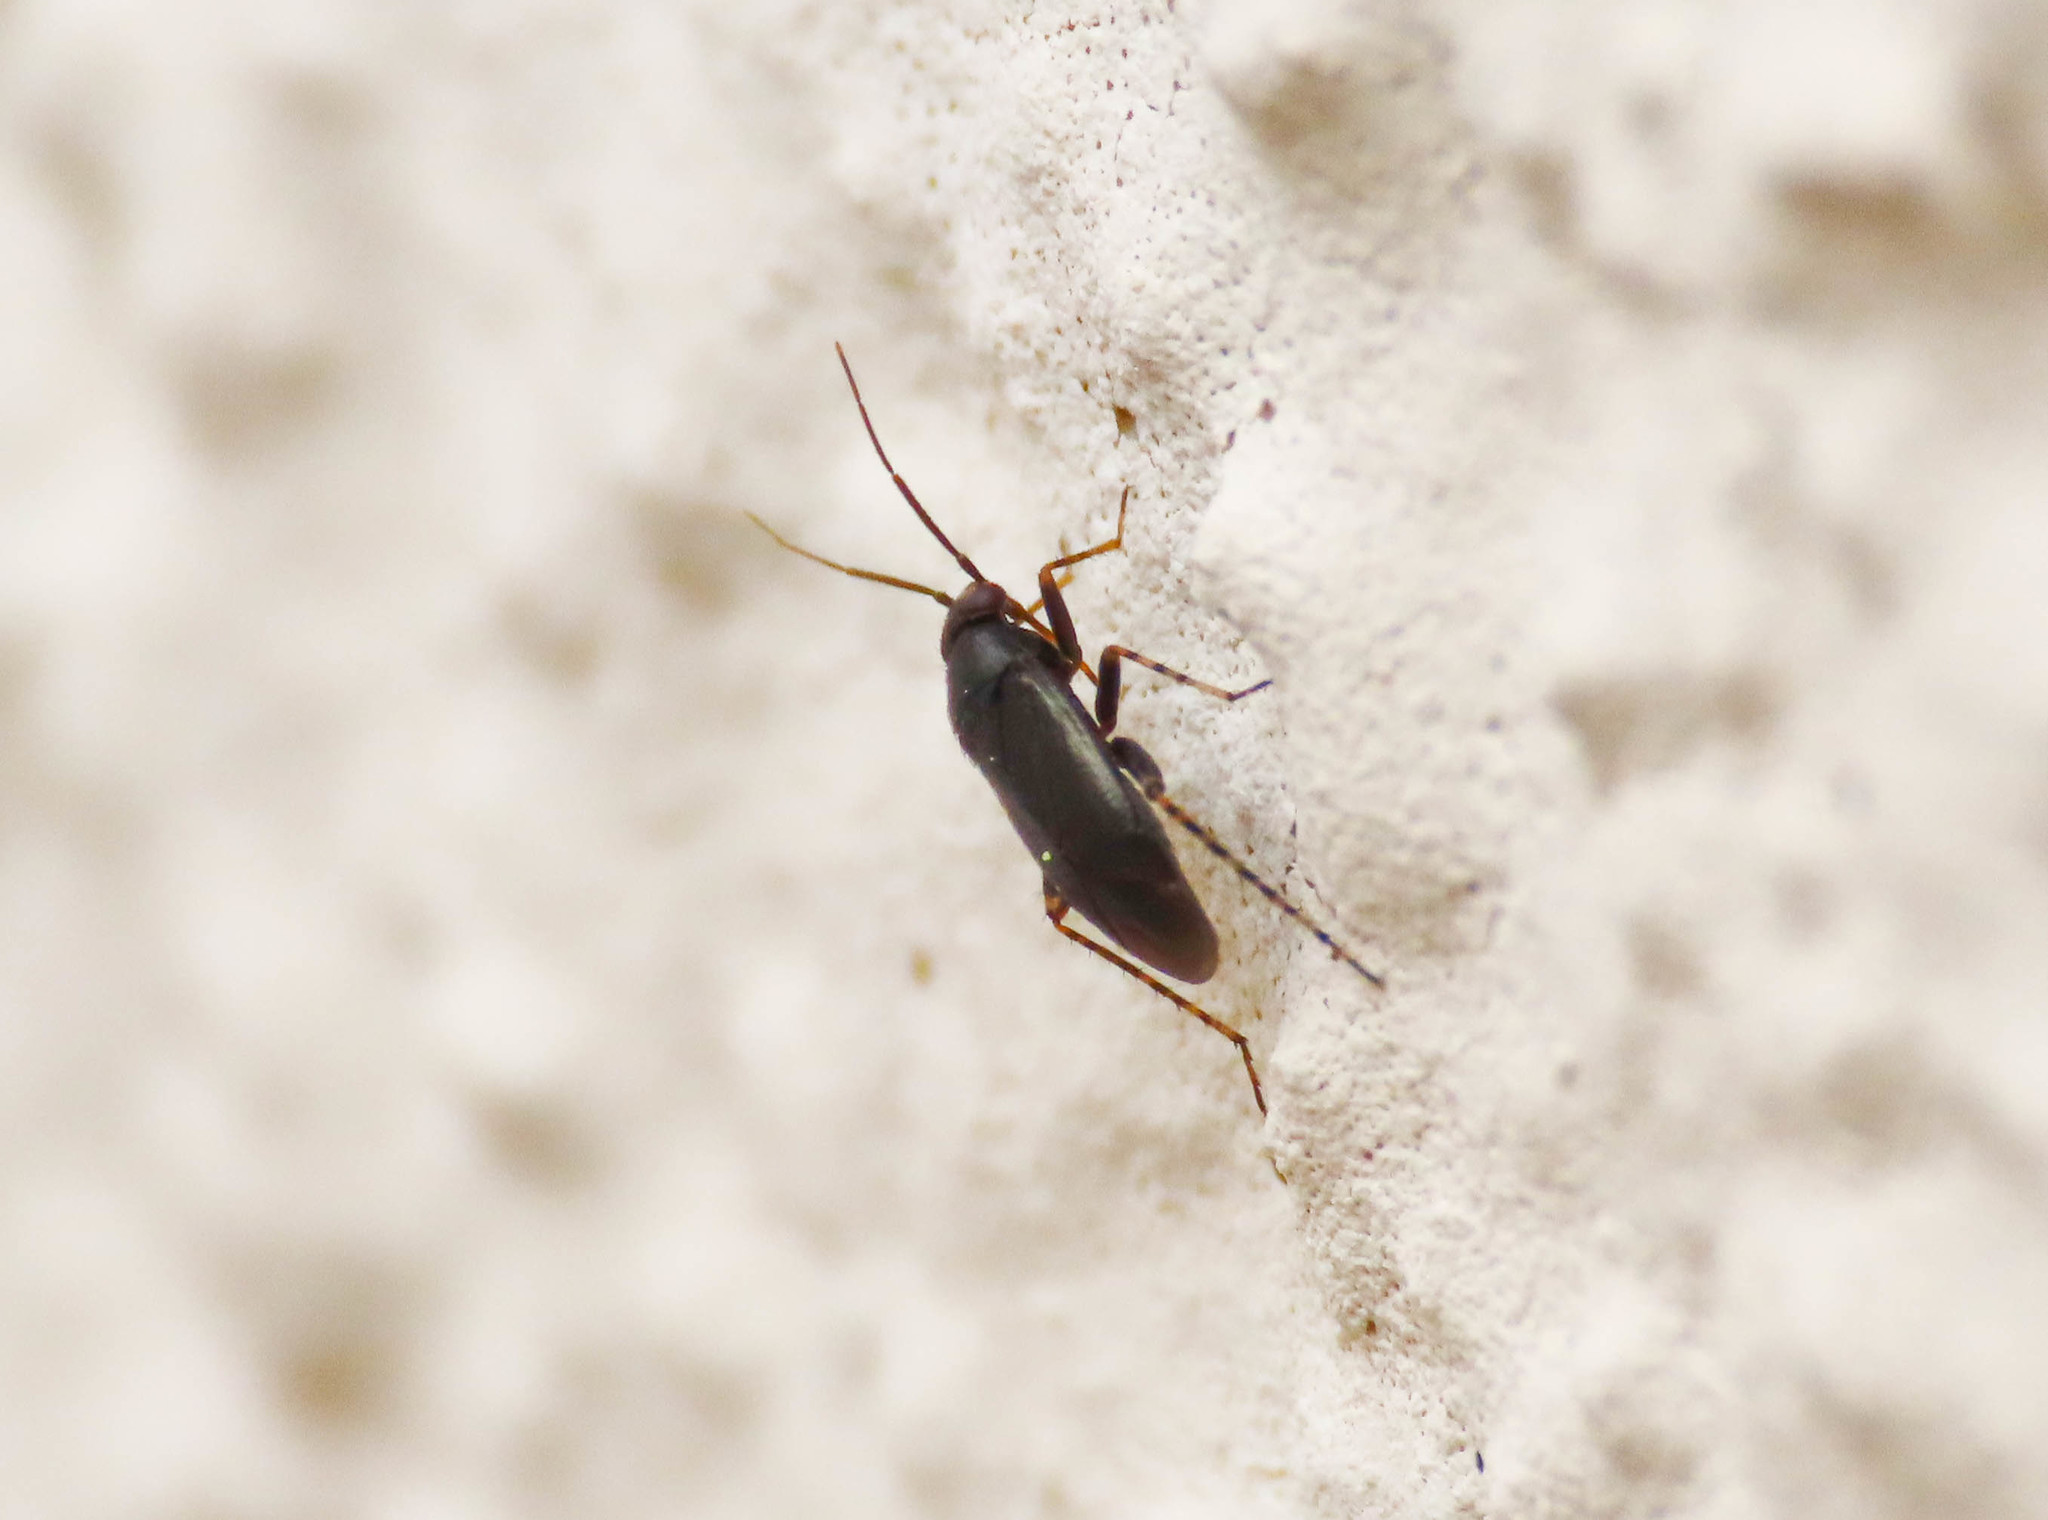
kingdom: Animalia
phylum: Arthropoda
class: Insecta
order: Hemiptera
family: Miridae
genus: Chlamydatus
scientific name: Chlamydatus pullus
